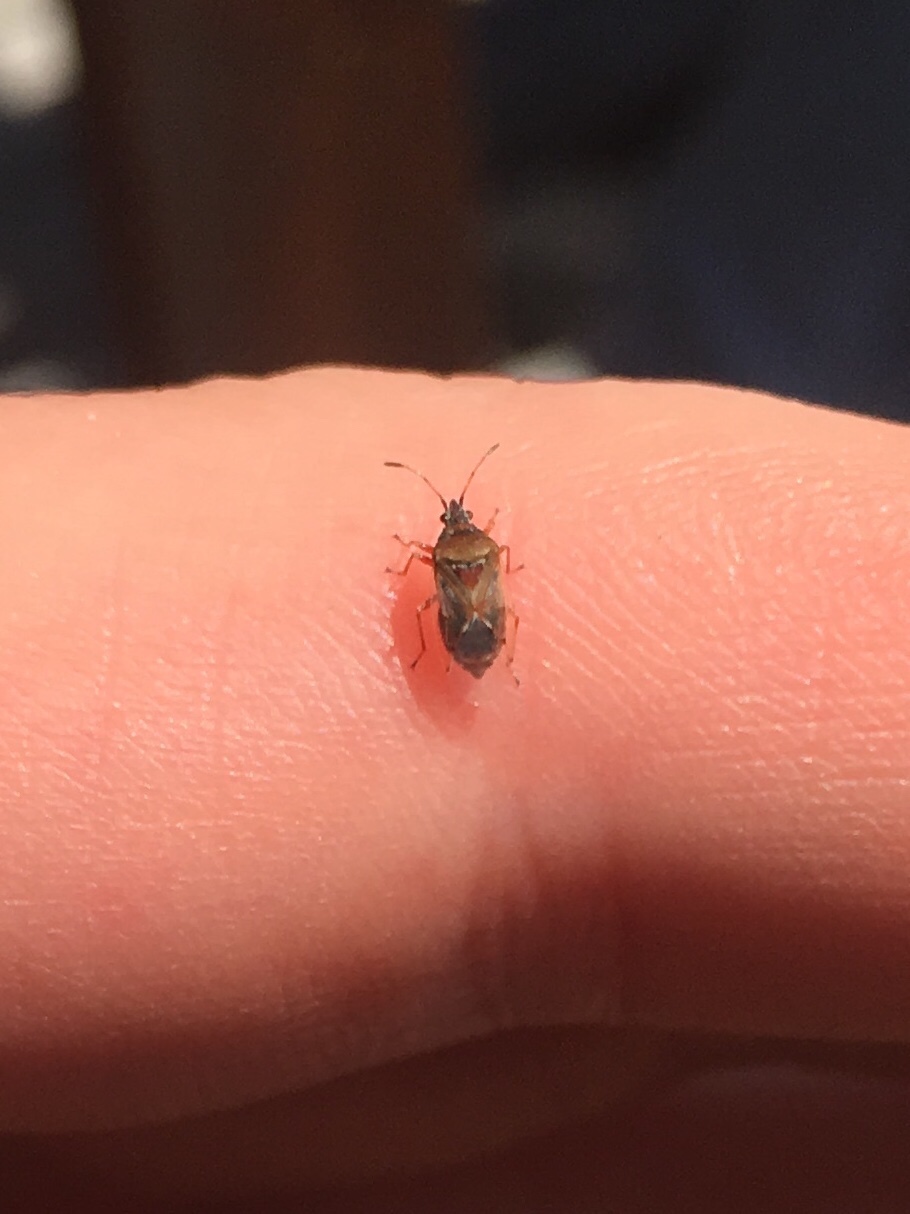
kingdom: Animalia
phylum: Arthropoda
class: Insecta
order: Hemiptera
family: Lygaeidae
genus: Kleidocerys
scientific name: Kleidocerys resedae
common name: Birch catkin bug
